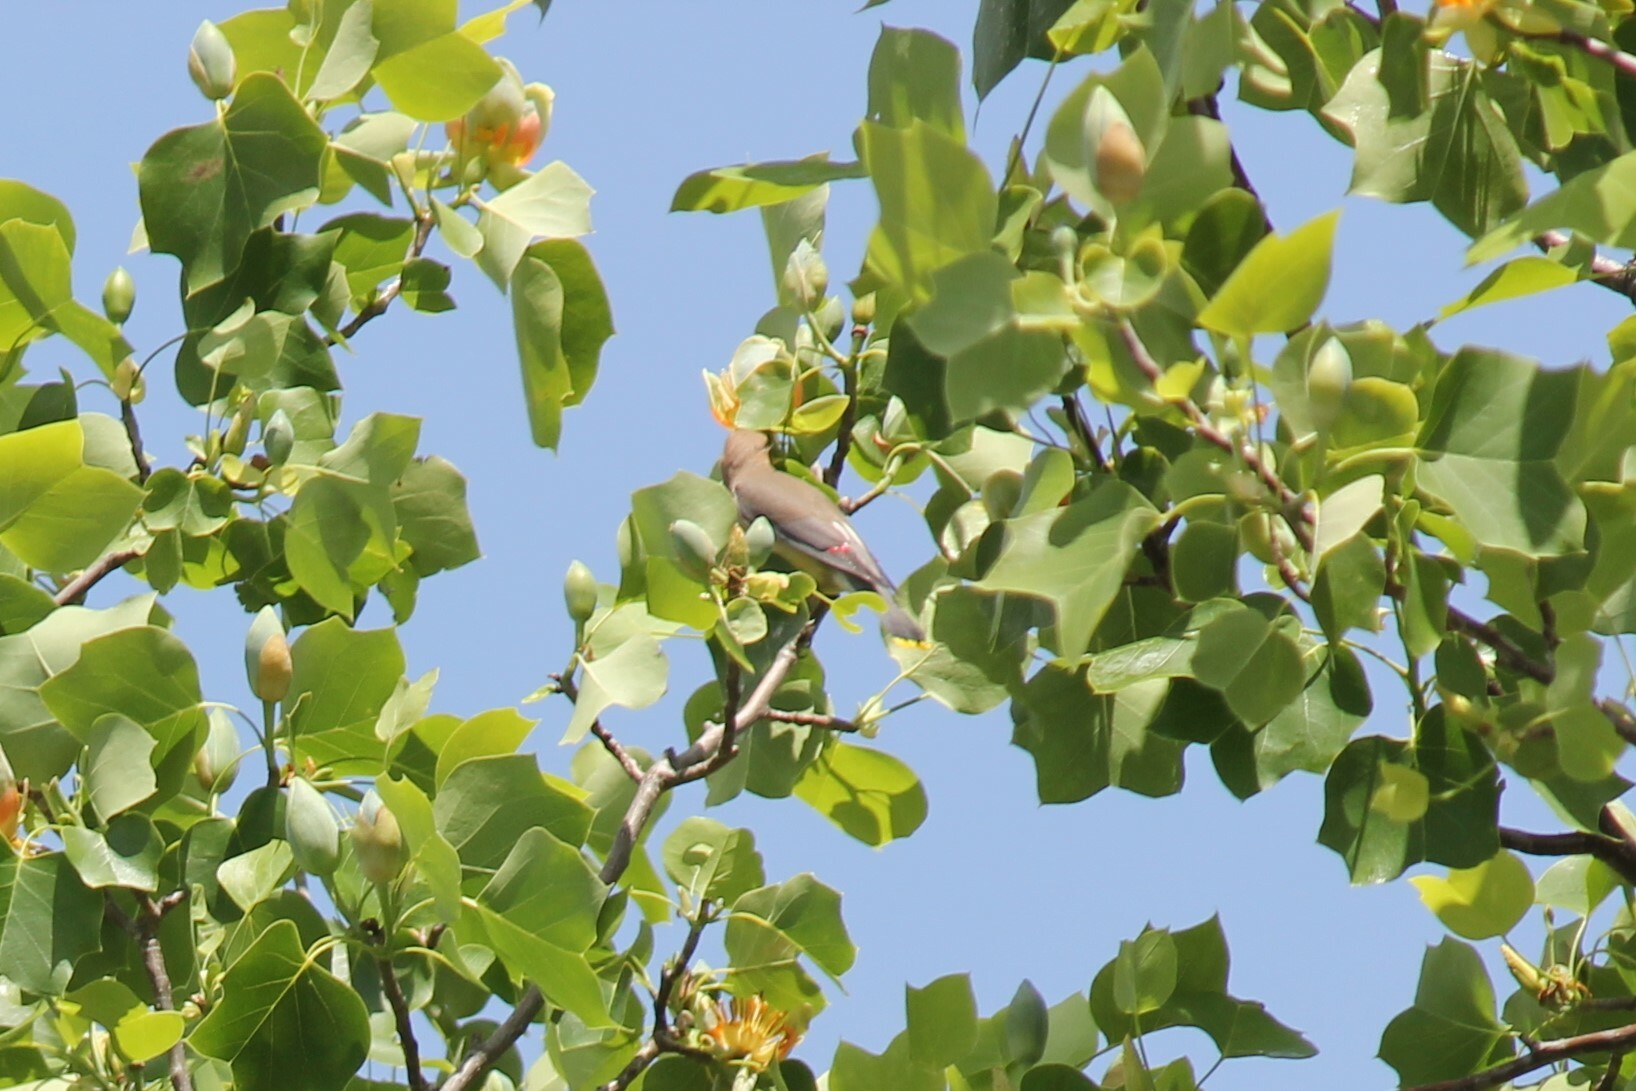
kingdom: Animalia
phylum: Chordata
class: Aves
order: Passeriformes
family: Bombycillidae
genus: Bombycilla
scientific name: Bombycilla cedrorum
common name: Cedar waxwing
